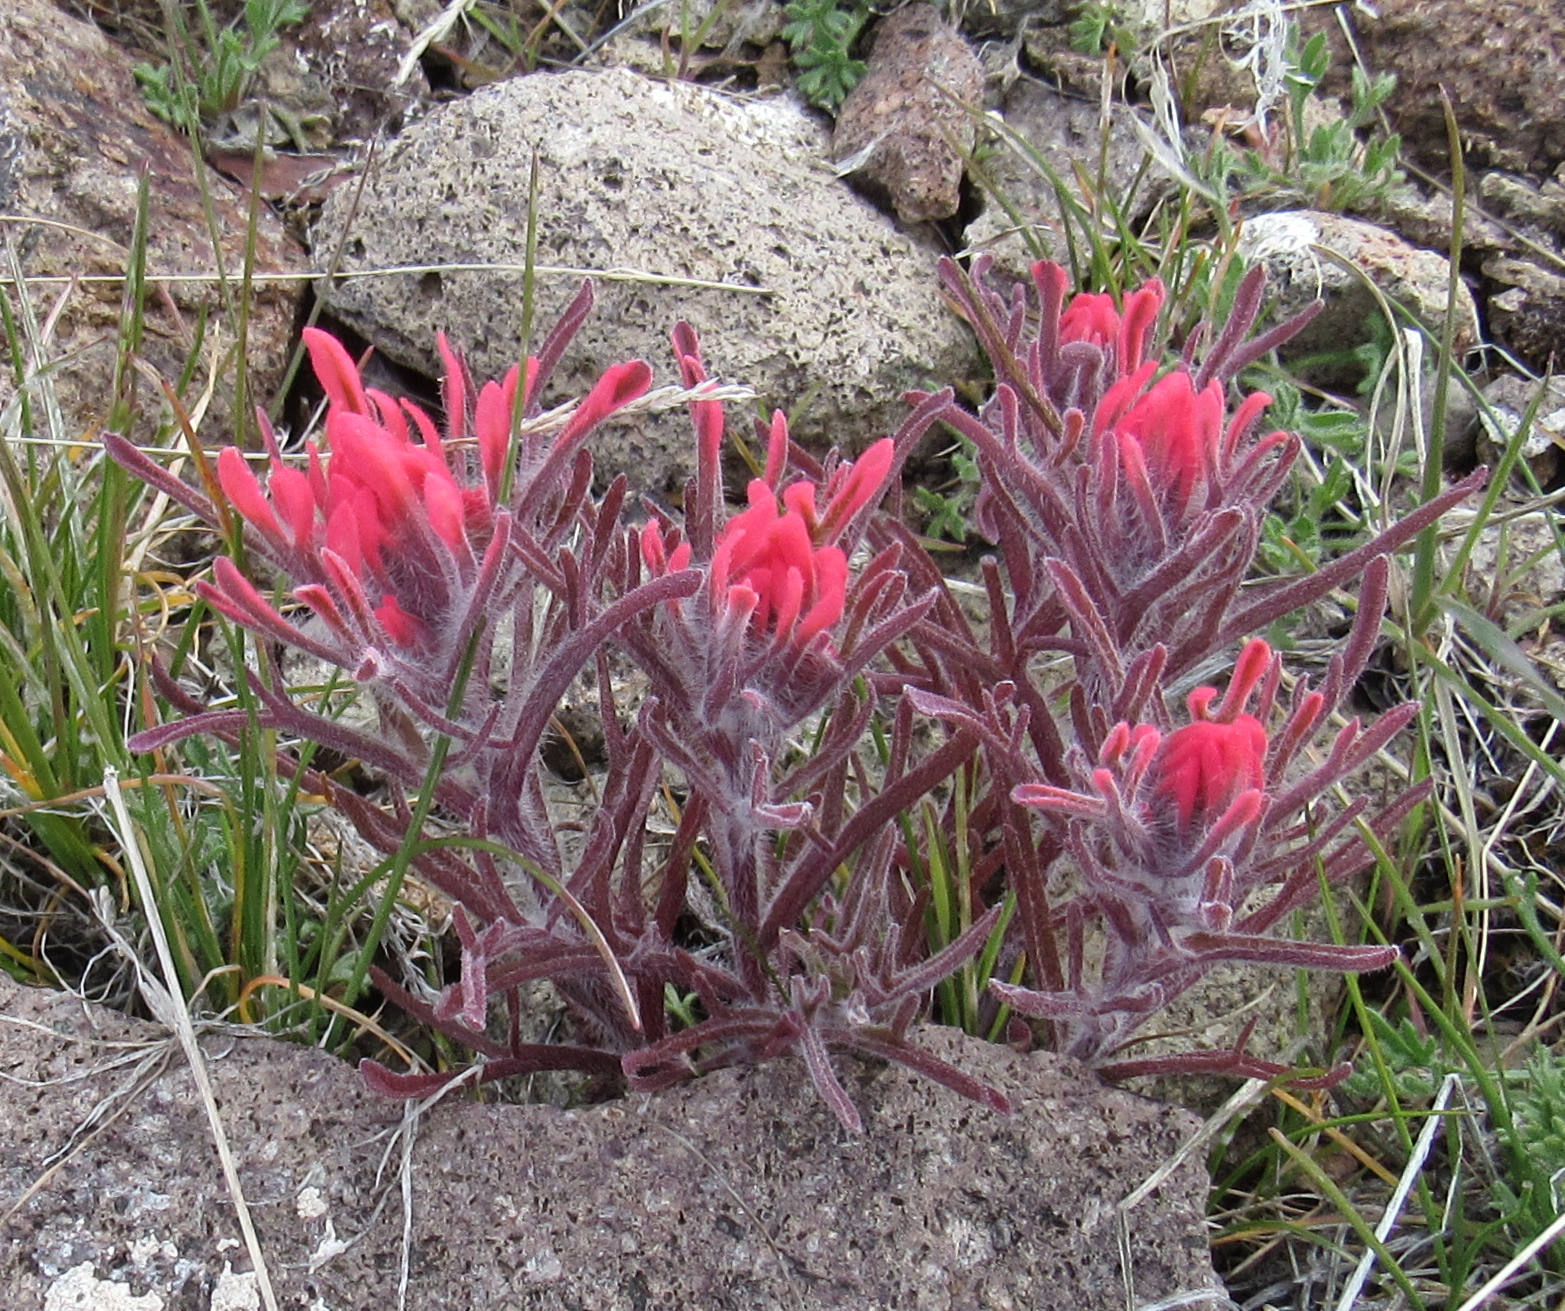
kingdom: Plantae
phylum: Tracheophyta
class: Magnoliopsida
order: Lamiales
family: Orobanchaceae
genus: Castilleja
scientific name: Castilleja angustifolia
